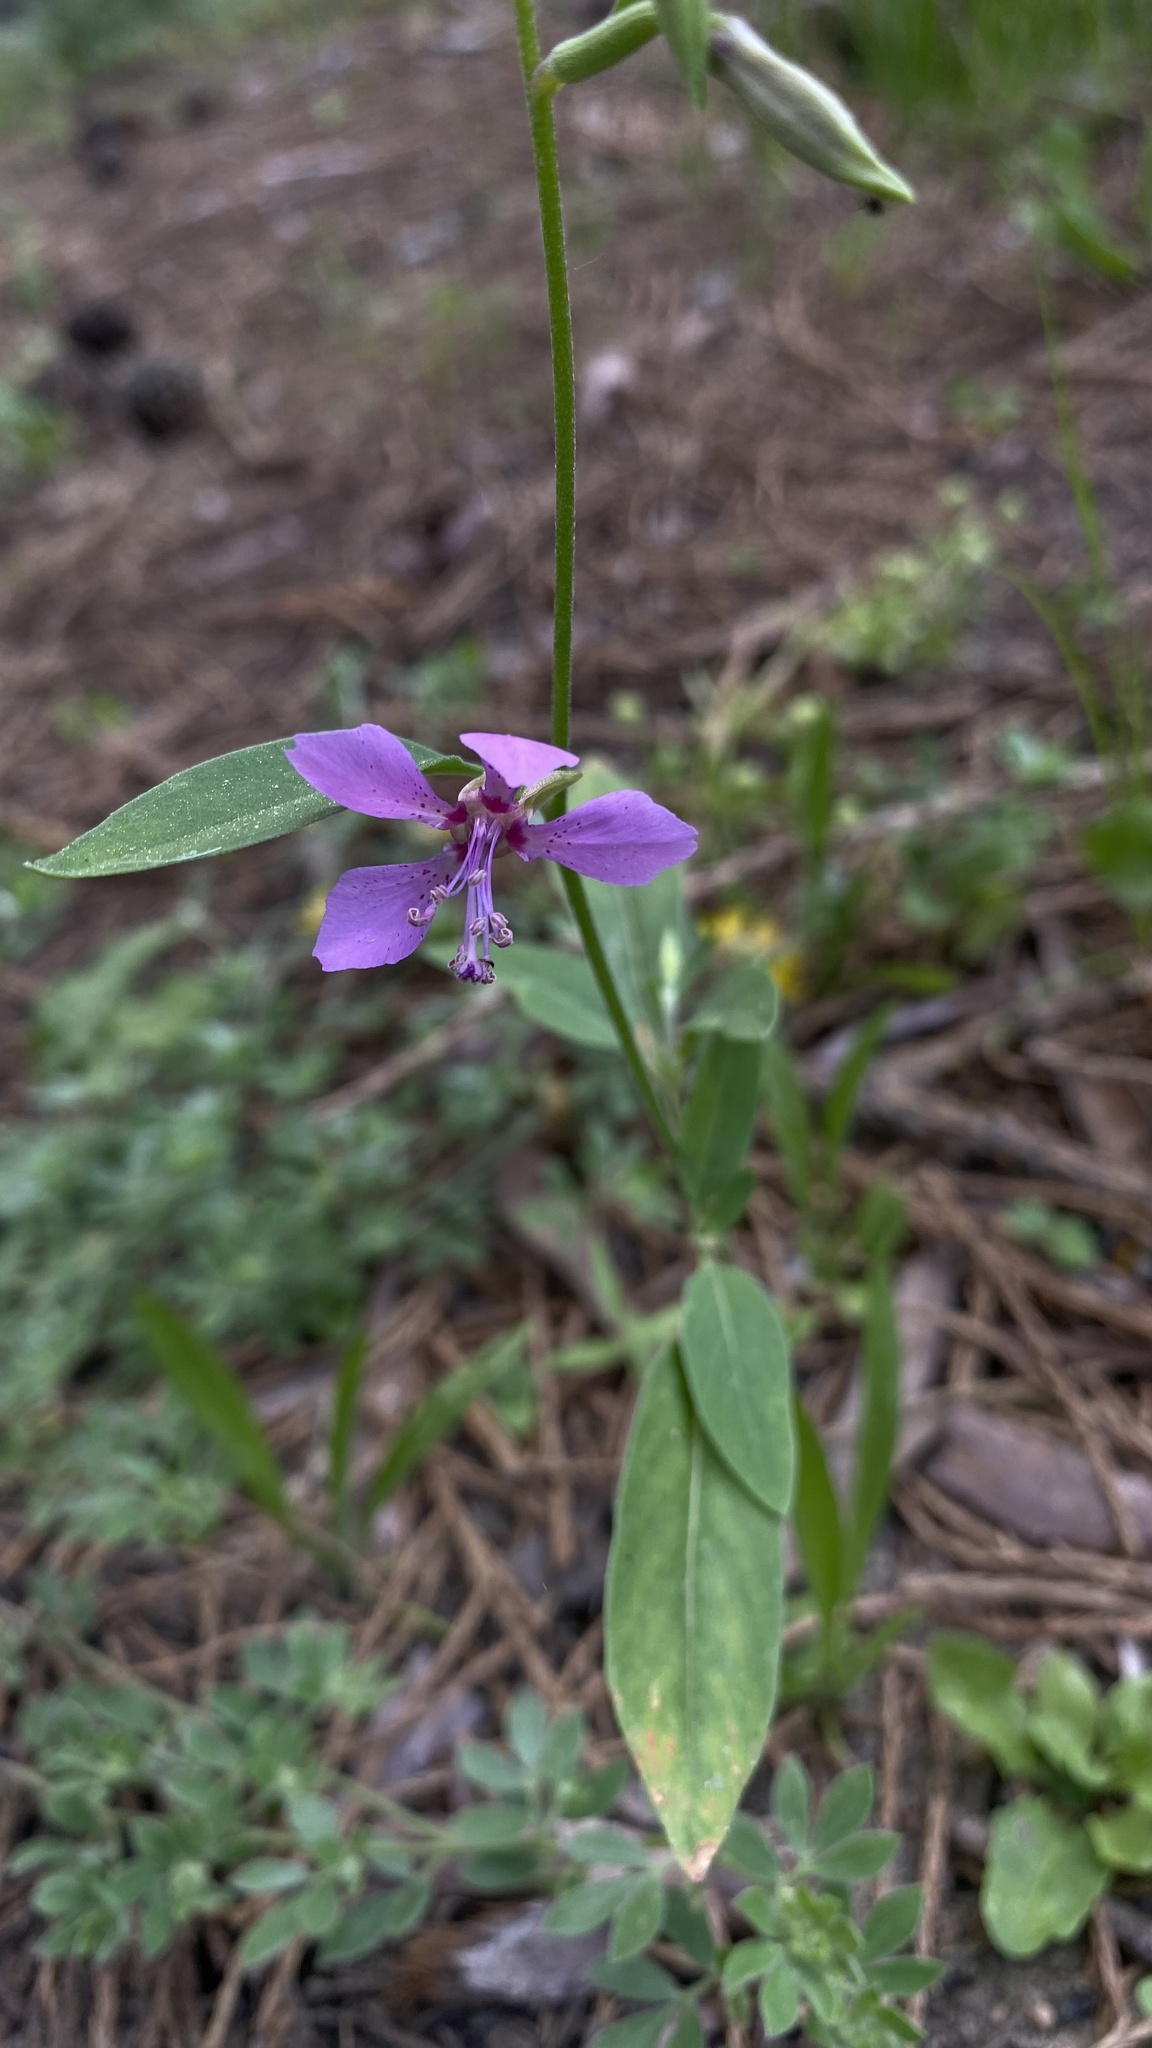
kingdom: Plantae
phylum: Tracheophyta
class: Magnoliopsida
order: Myrtales
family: Onagraceae
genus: Clarkia
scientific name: Clarkia rhomboidea
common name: Broadleaf clarkia
